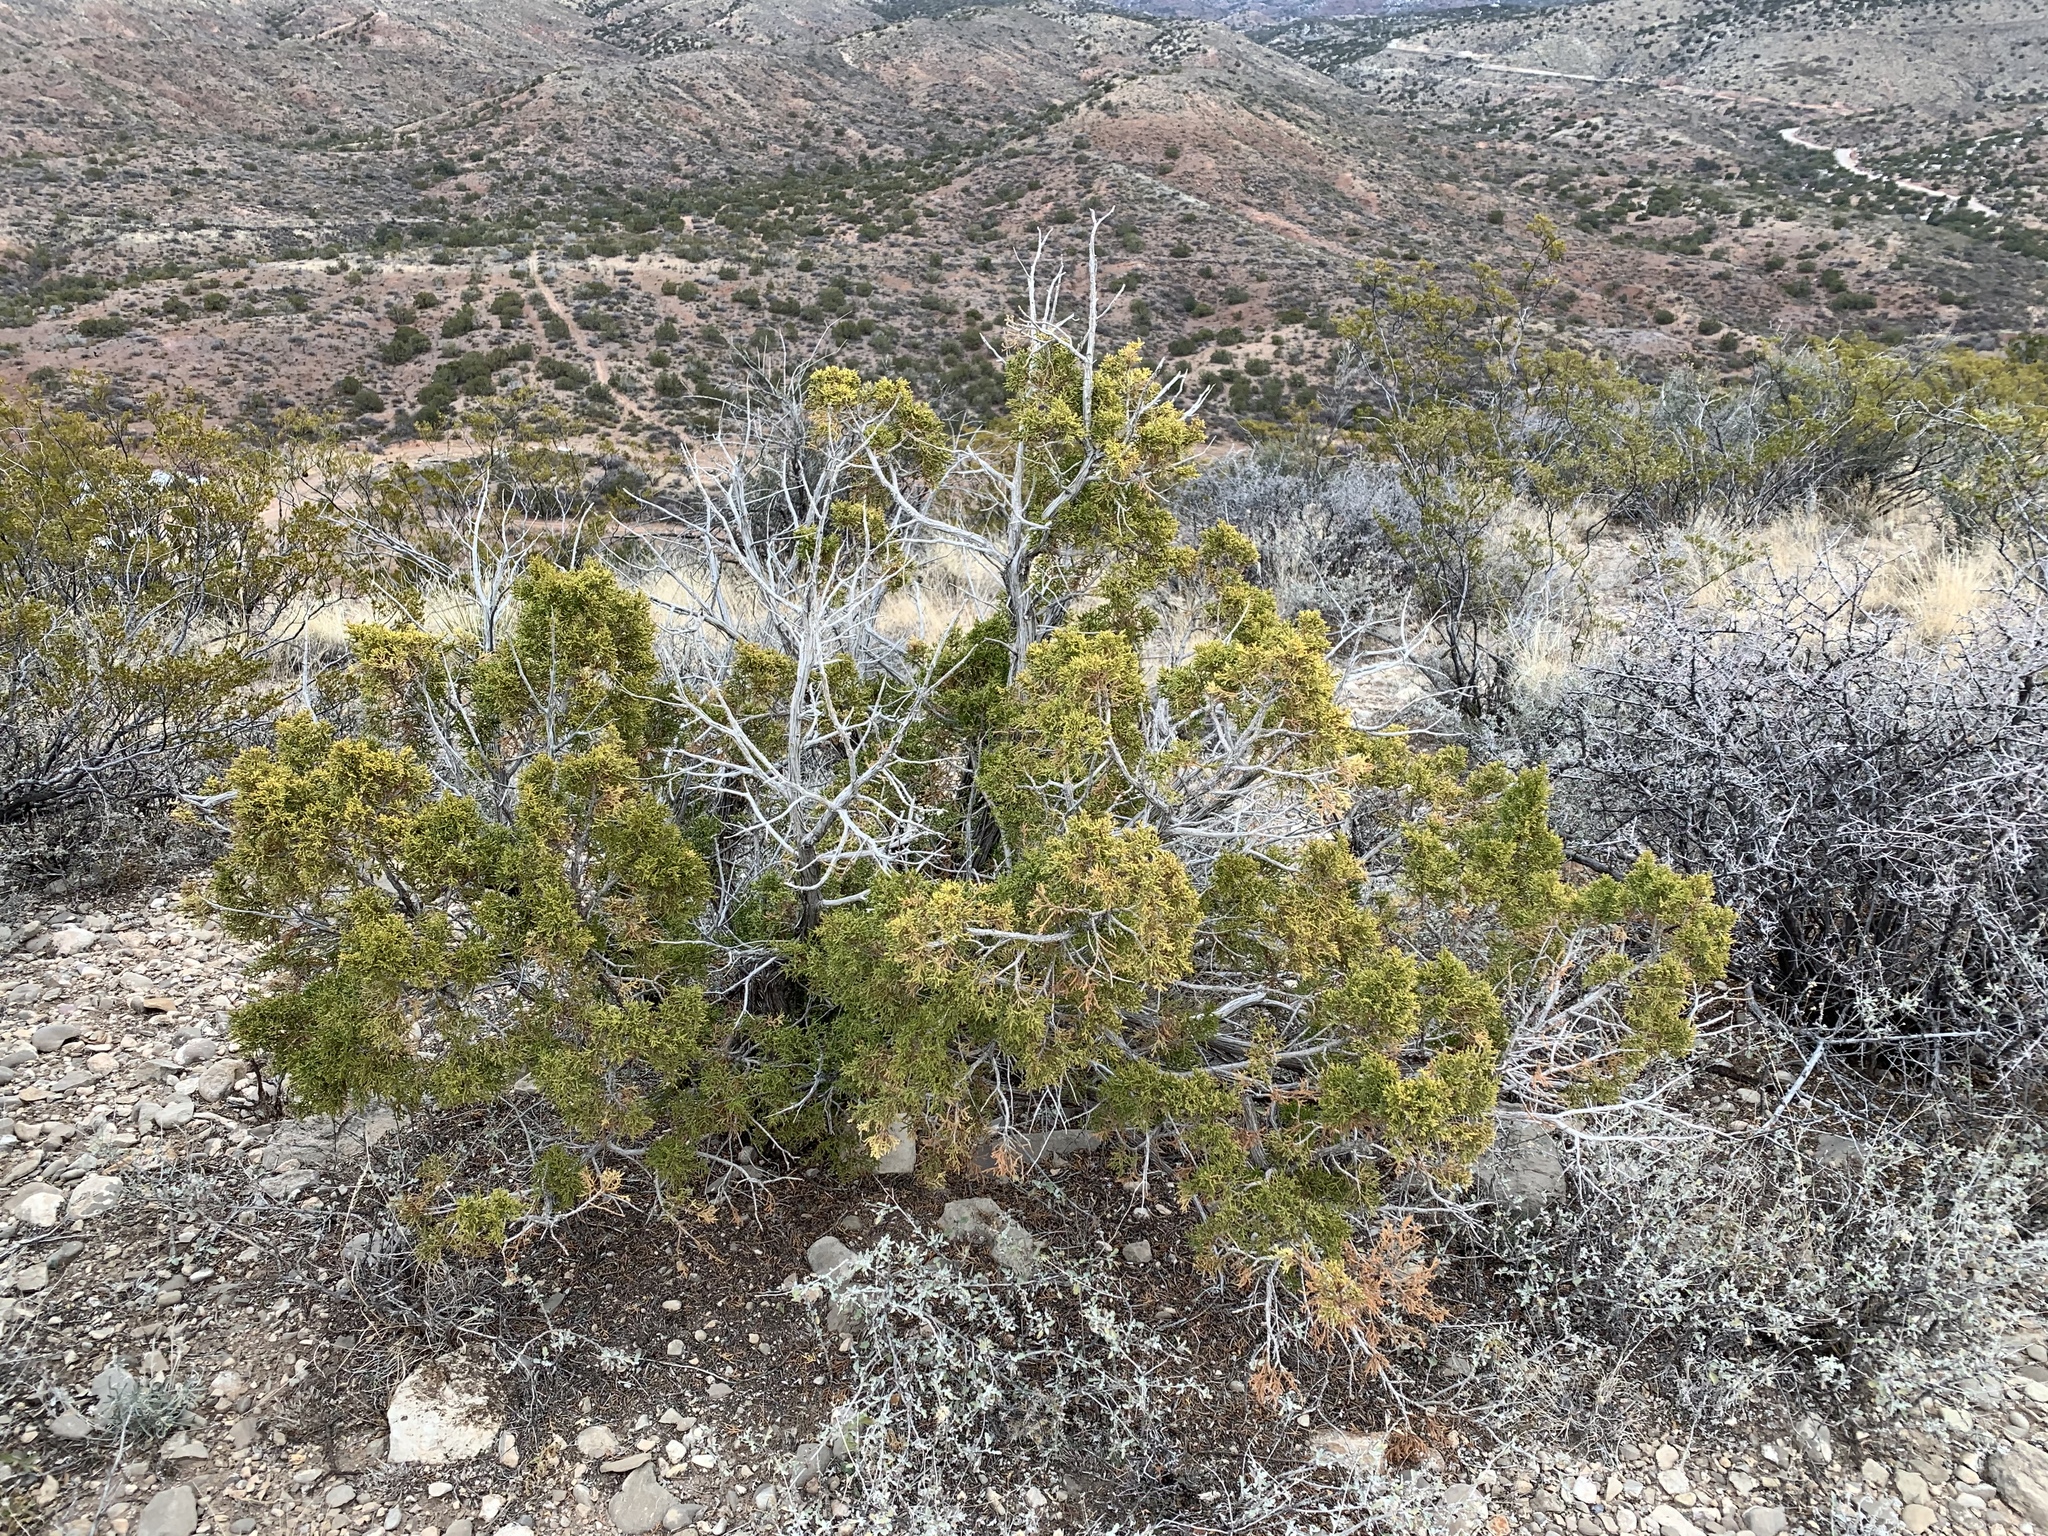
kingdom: Plantae
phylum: Tracheophyta
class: Pinopsida
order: Pinales
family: Cupressaceae
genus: Juniperus
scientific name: Juniperus monosperma
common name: One-seed juniper
